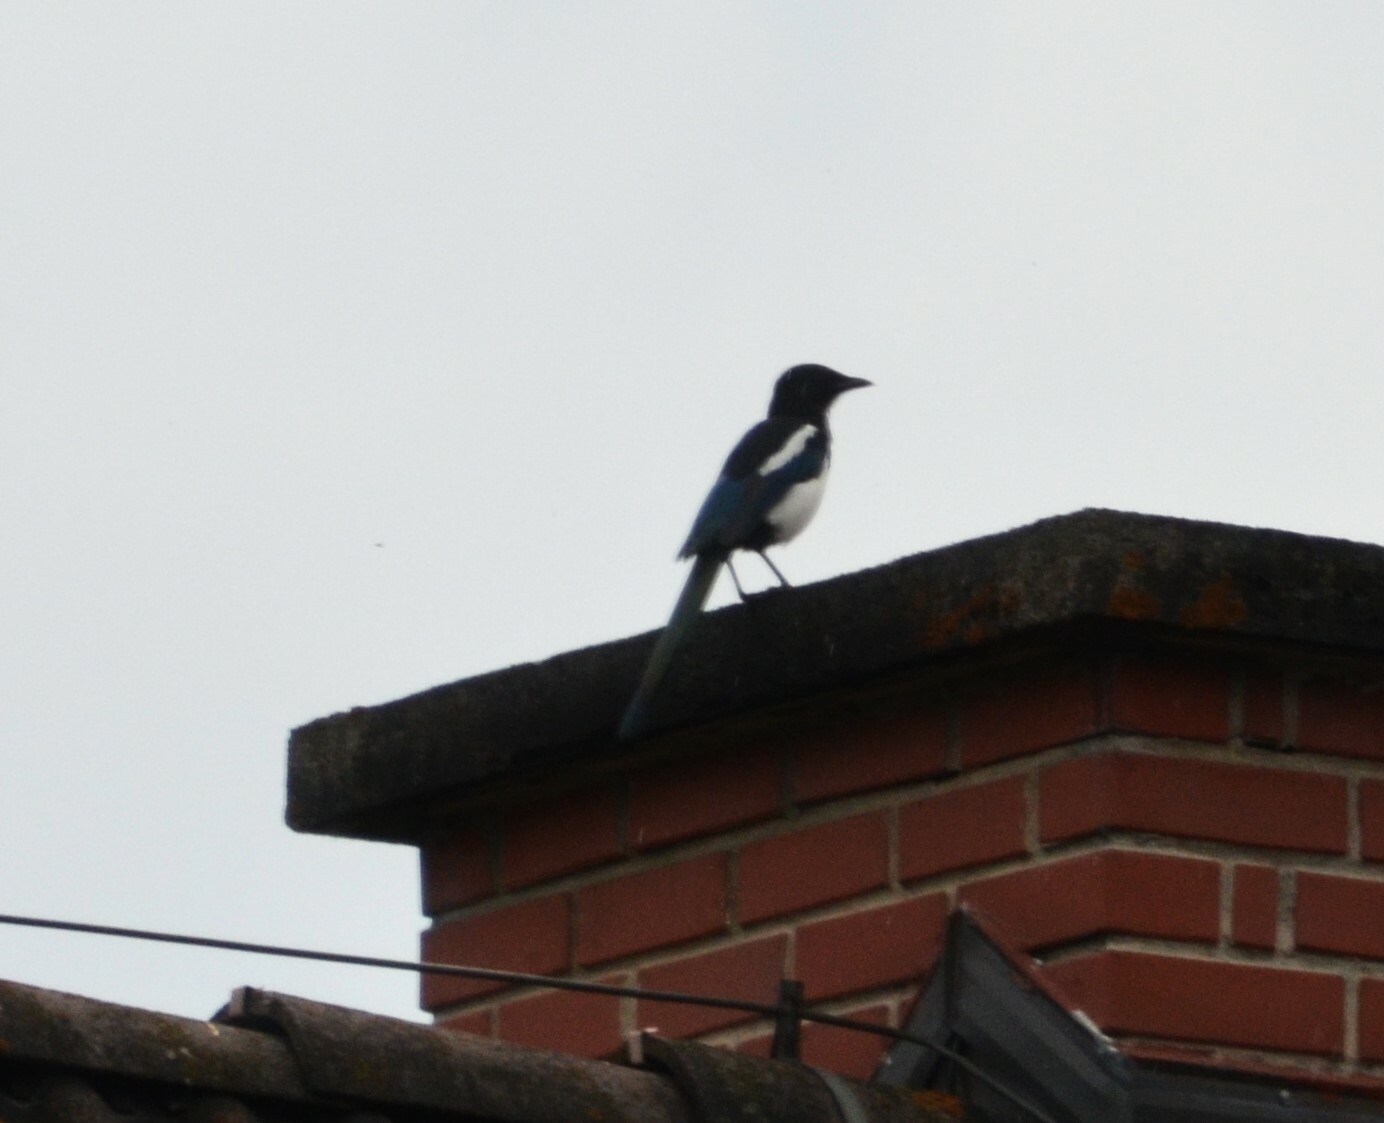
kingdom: Animalia
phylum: Chordata
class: Aves
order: Passeriformes
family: Corvidae
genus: Pica
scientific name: Pica pica
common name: Eurasian magpie
